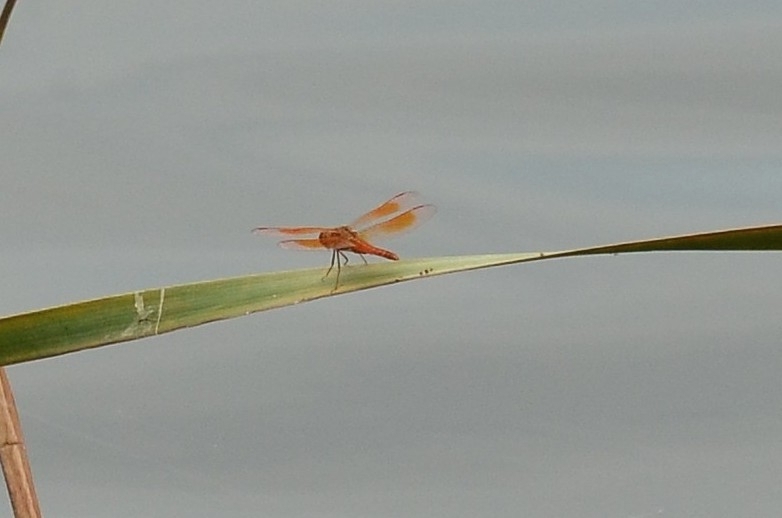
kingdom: Animalia
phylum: Arthropoda
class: Insecta
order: Odonata
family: Libellulidae
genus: Brachythemis
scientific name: Brachythemis contaminata
